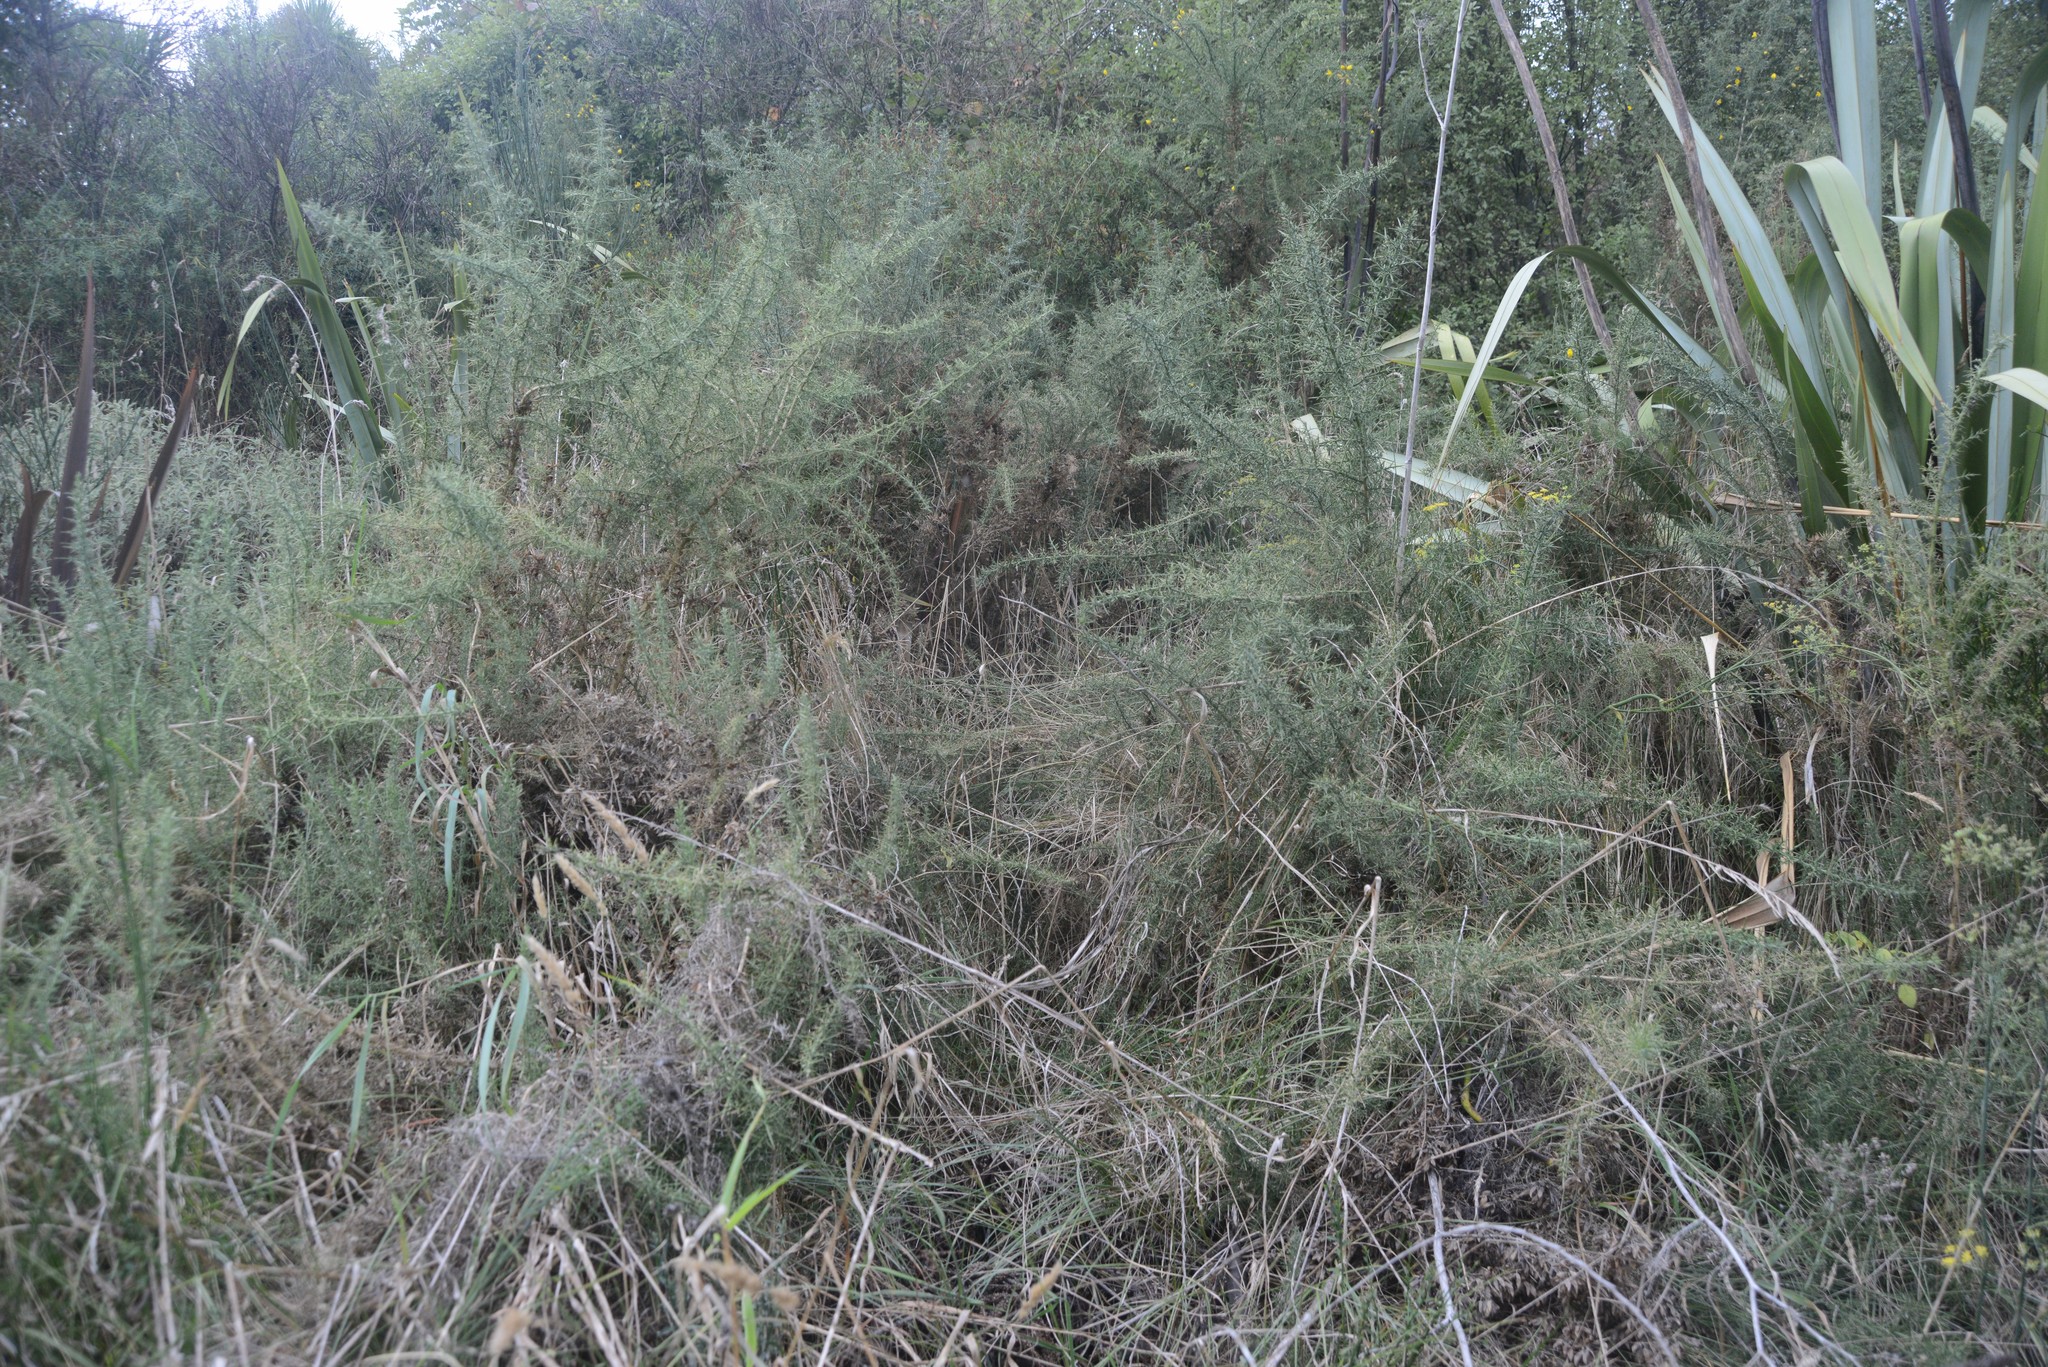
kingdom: Plantae
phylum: Tracheophyta
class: Magnoliopsida
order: Fabales
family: Fabaceae
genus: Ulex
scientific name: Ulex europaeus
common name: Common gorse
